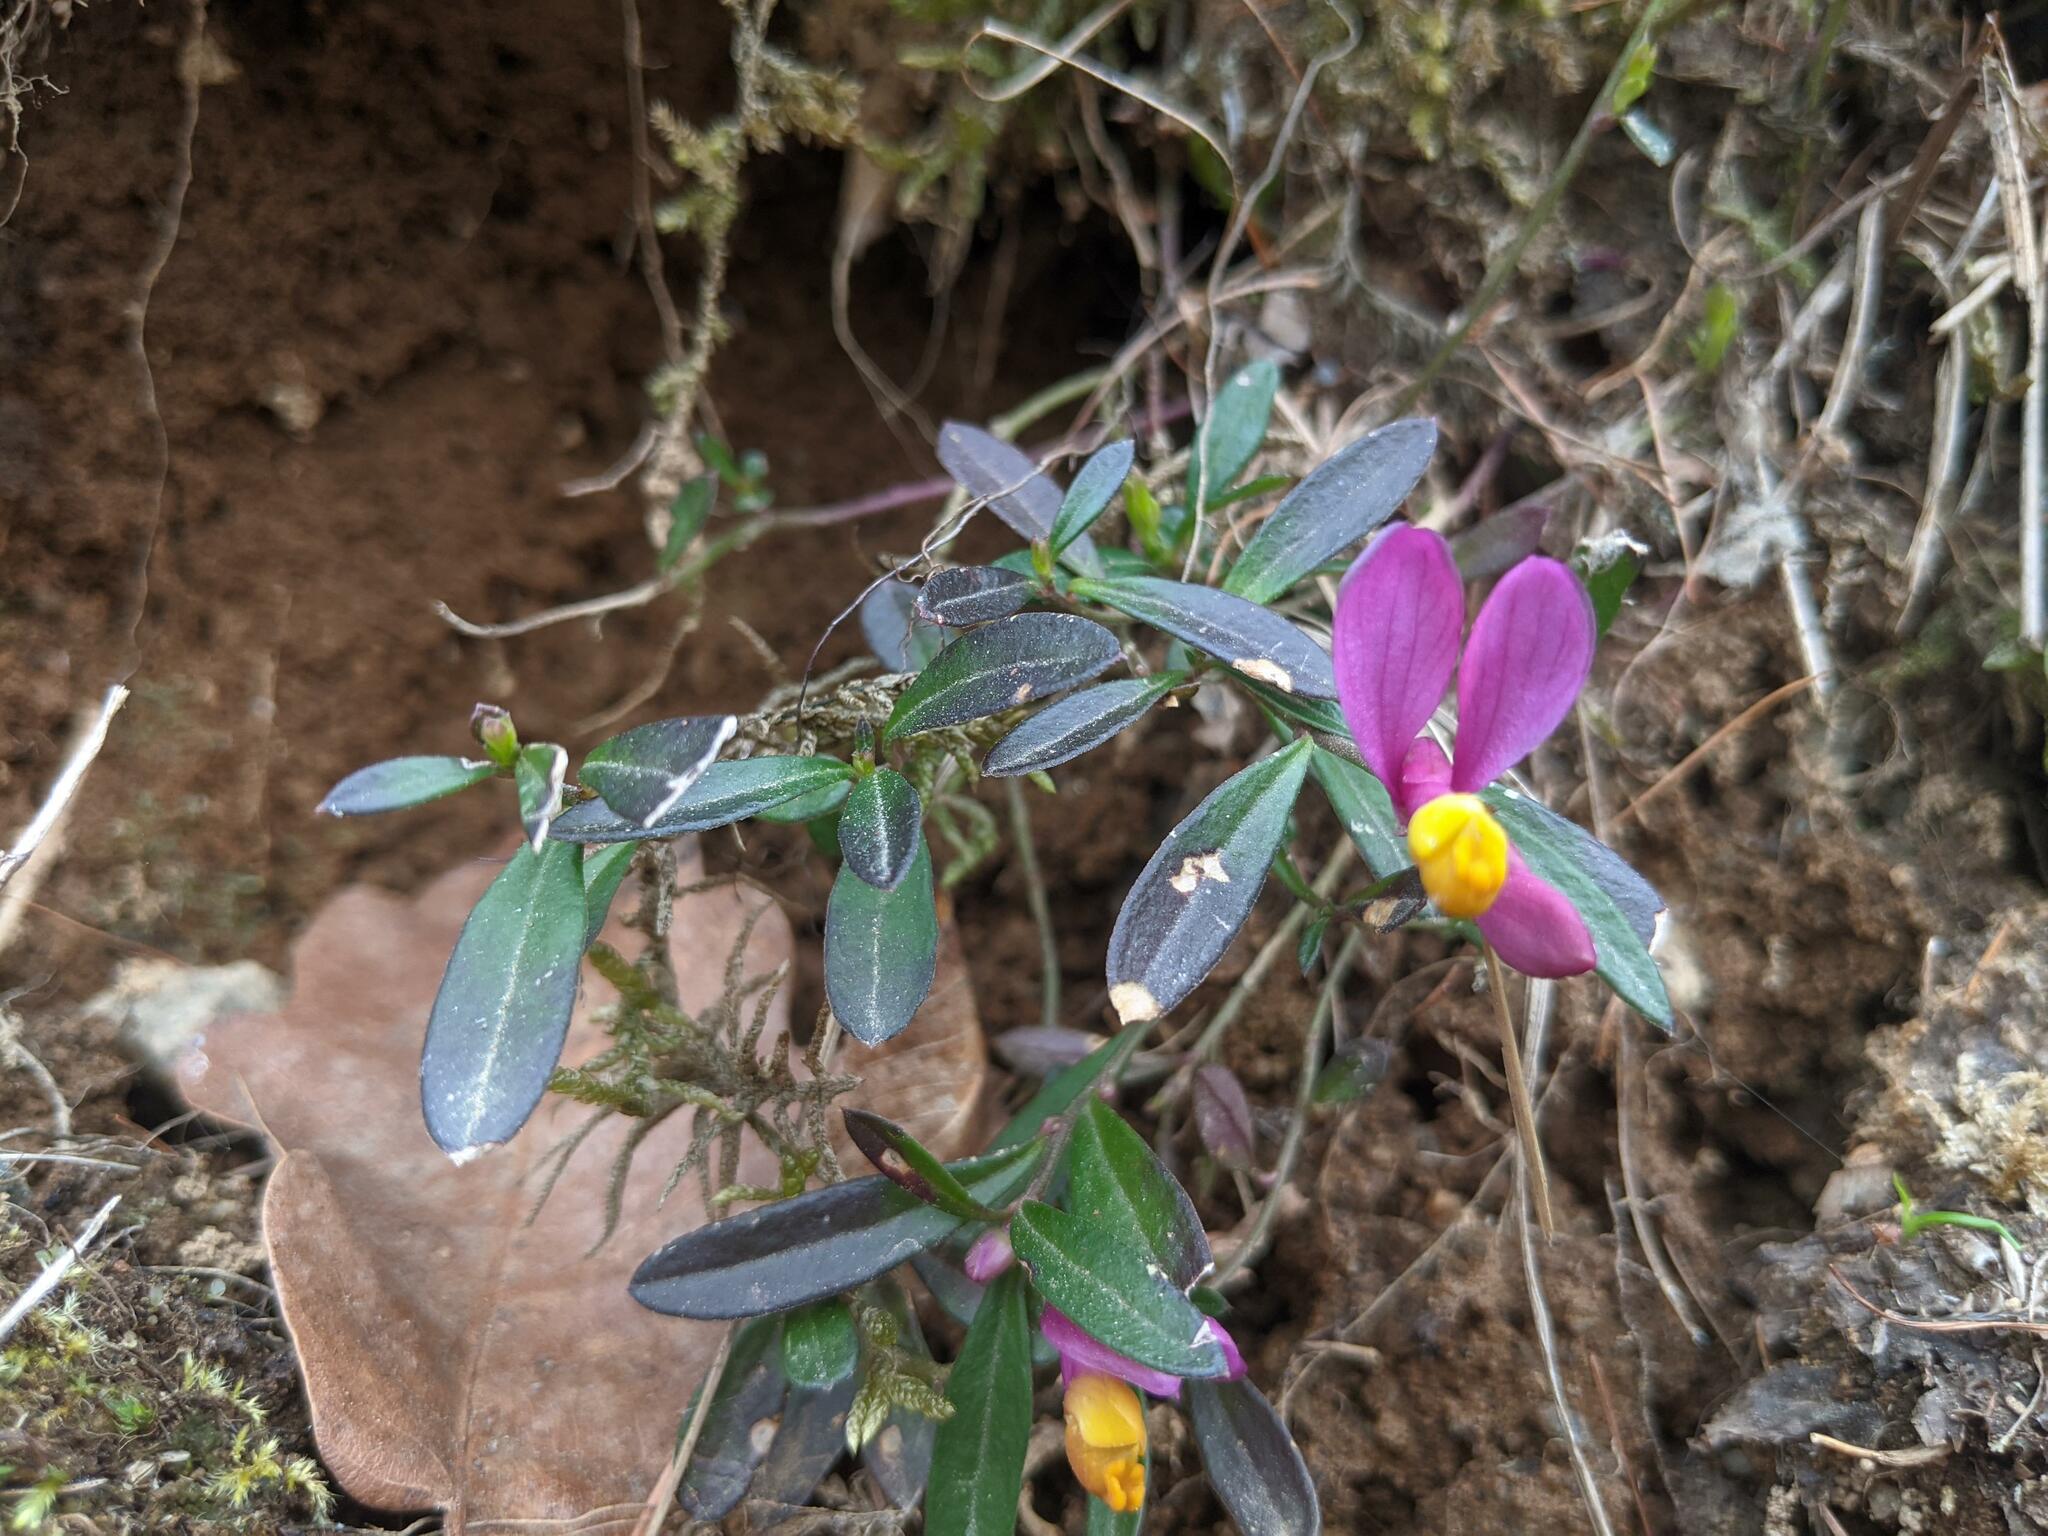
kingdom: Plantae
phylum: Tracheophyta
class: Magnoliopsida
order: Fabales
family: Polygalaceae
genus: Polygaloides
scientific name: Polygaloides chamaebuxus
